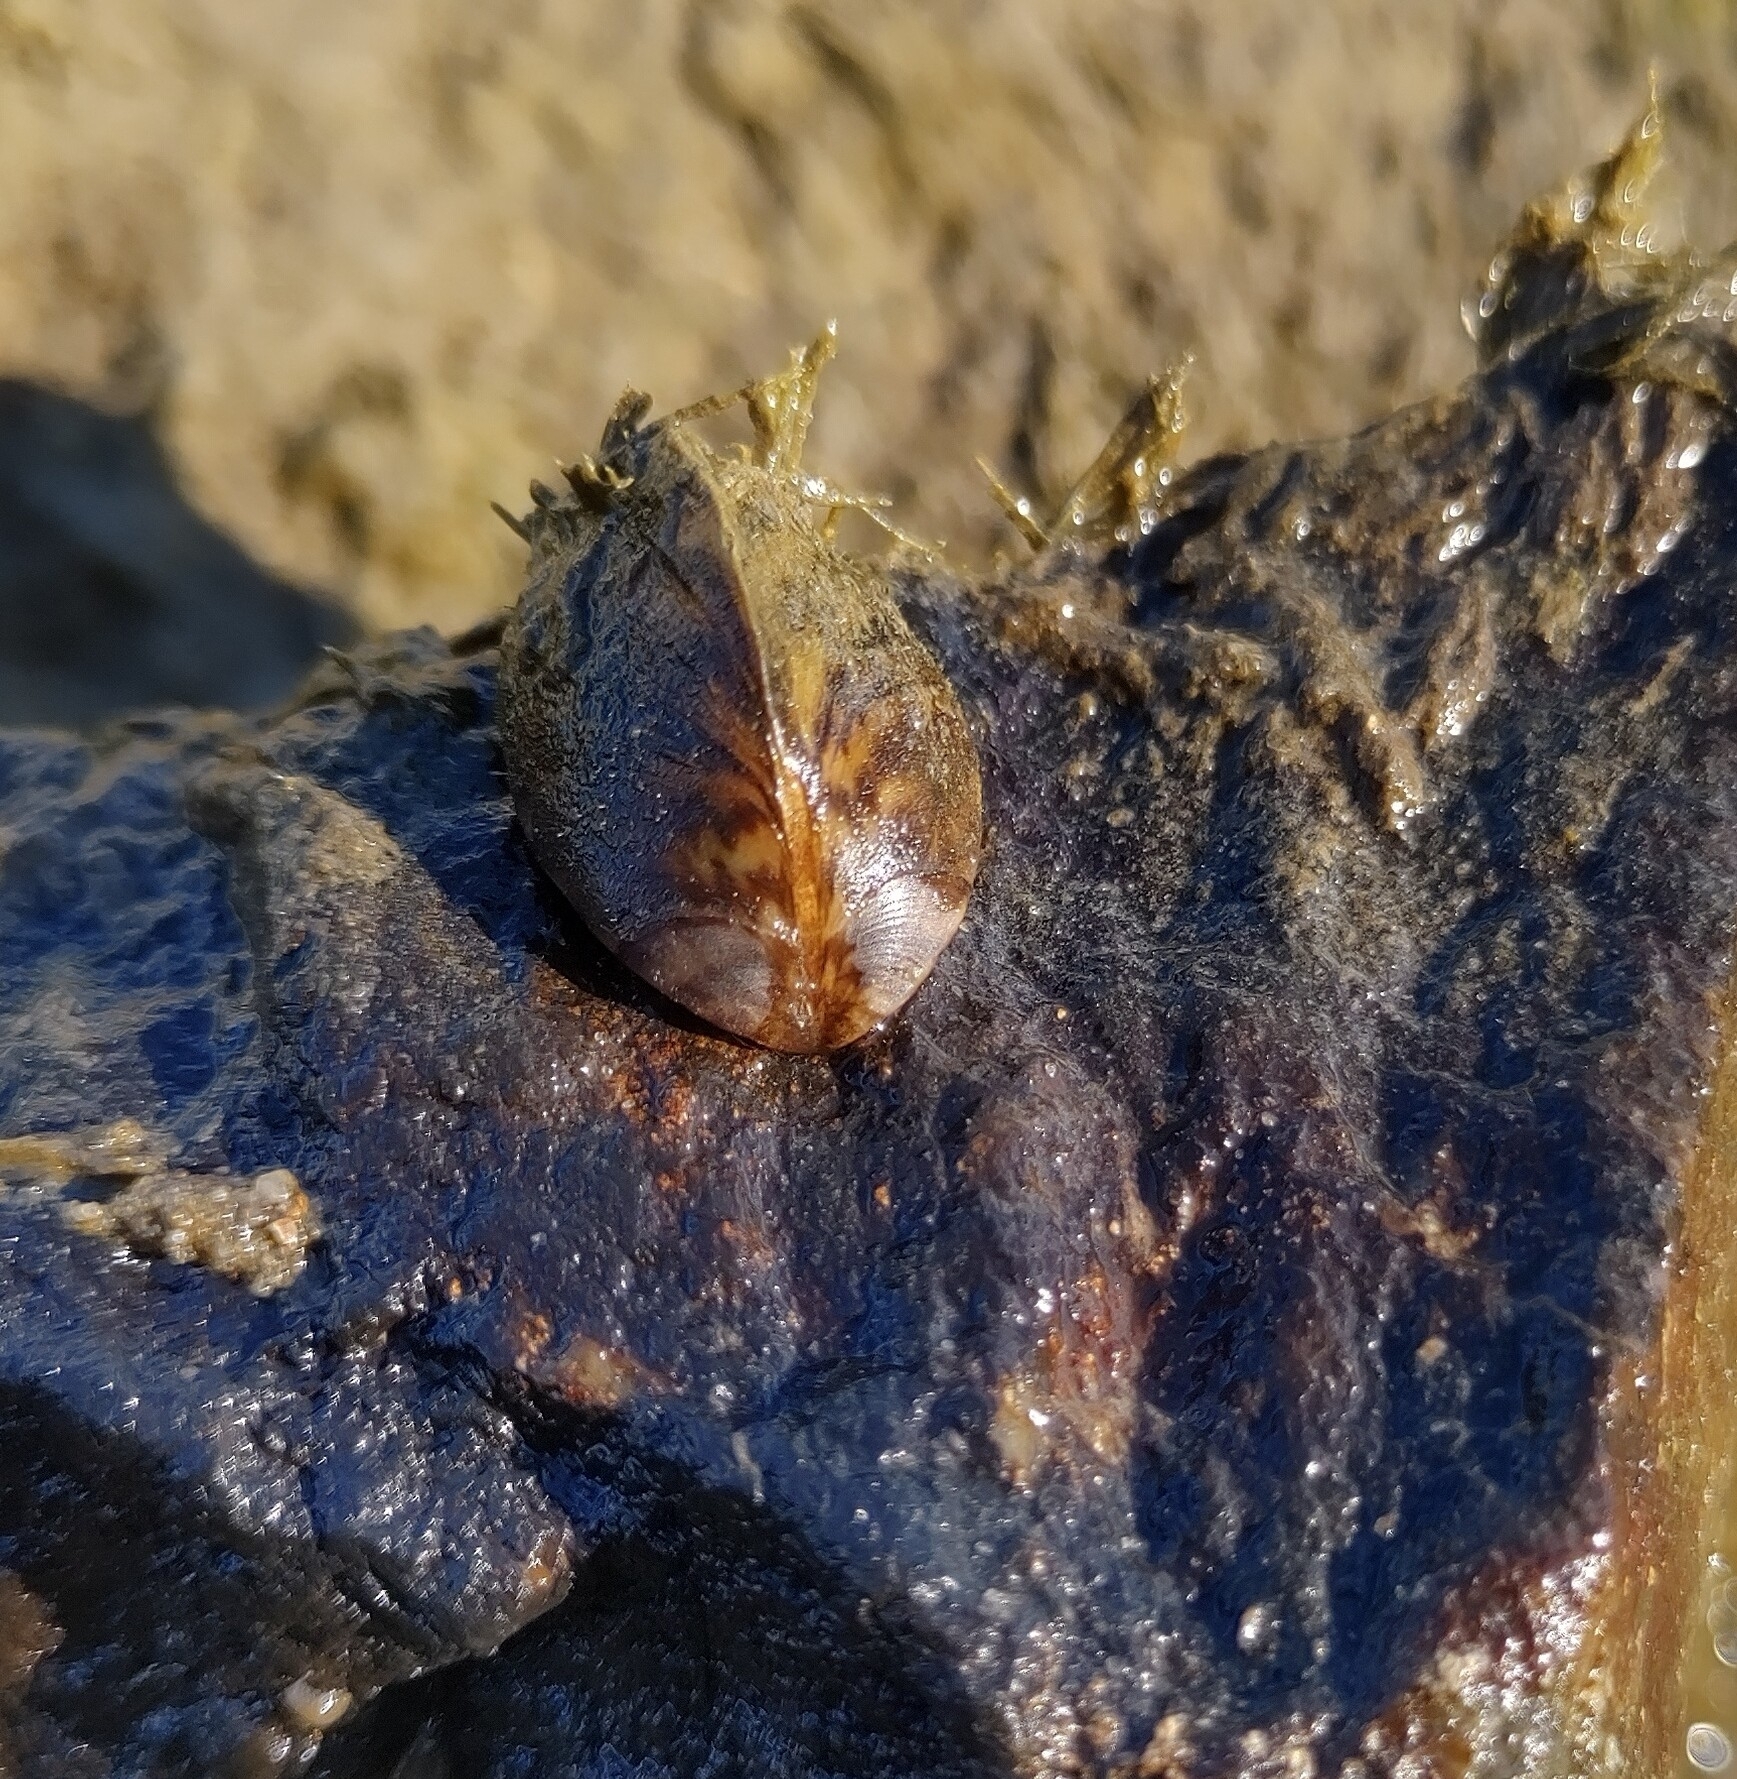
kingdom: Animalia
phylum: Mollusca
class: Bivalvia
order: Myida
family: Dreissenidae
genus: Dreissena
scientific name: Dreissena polymorpha
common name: Zebra mussel
